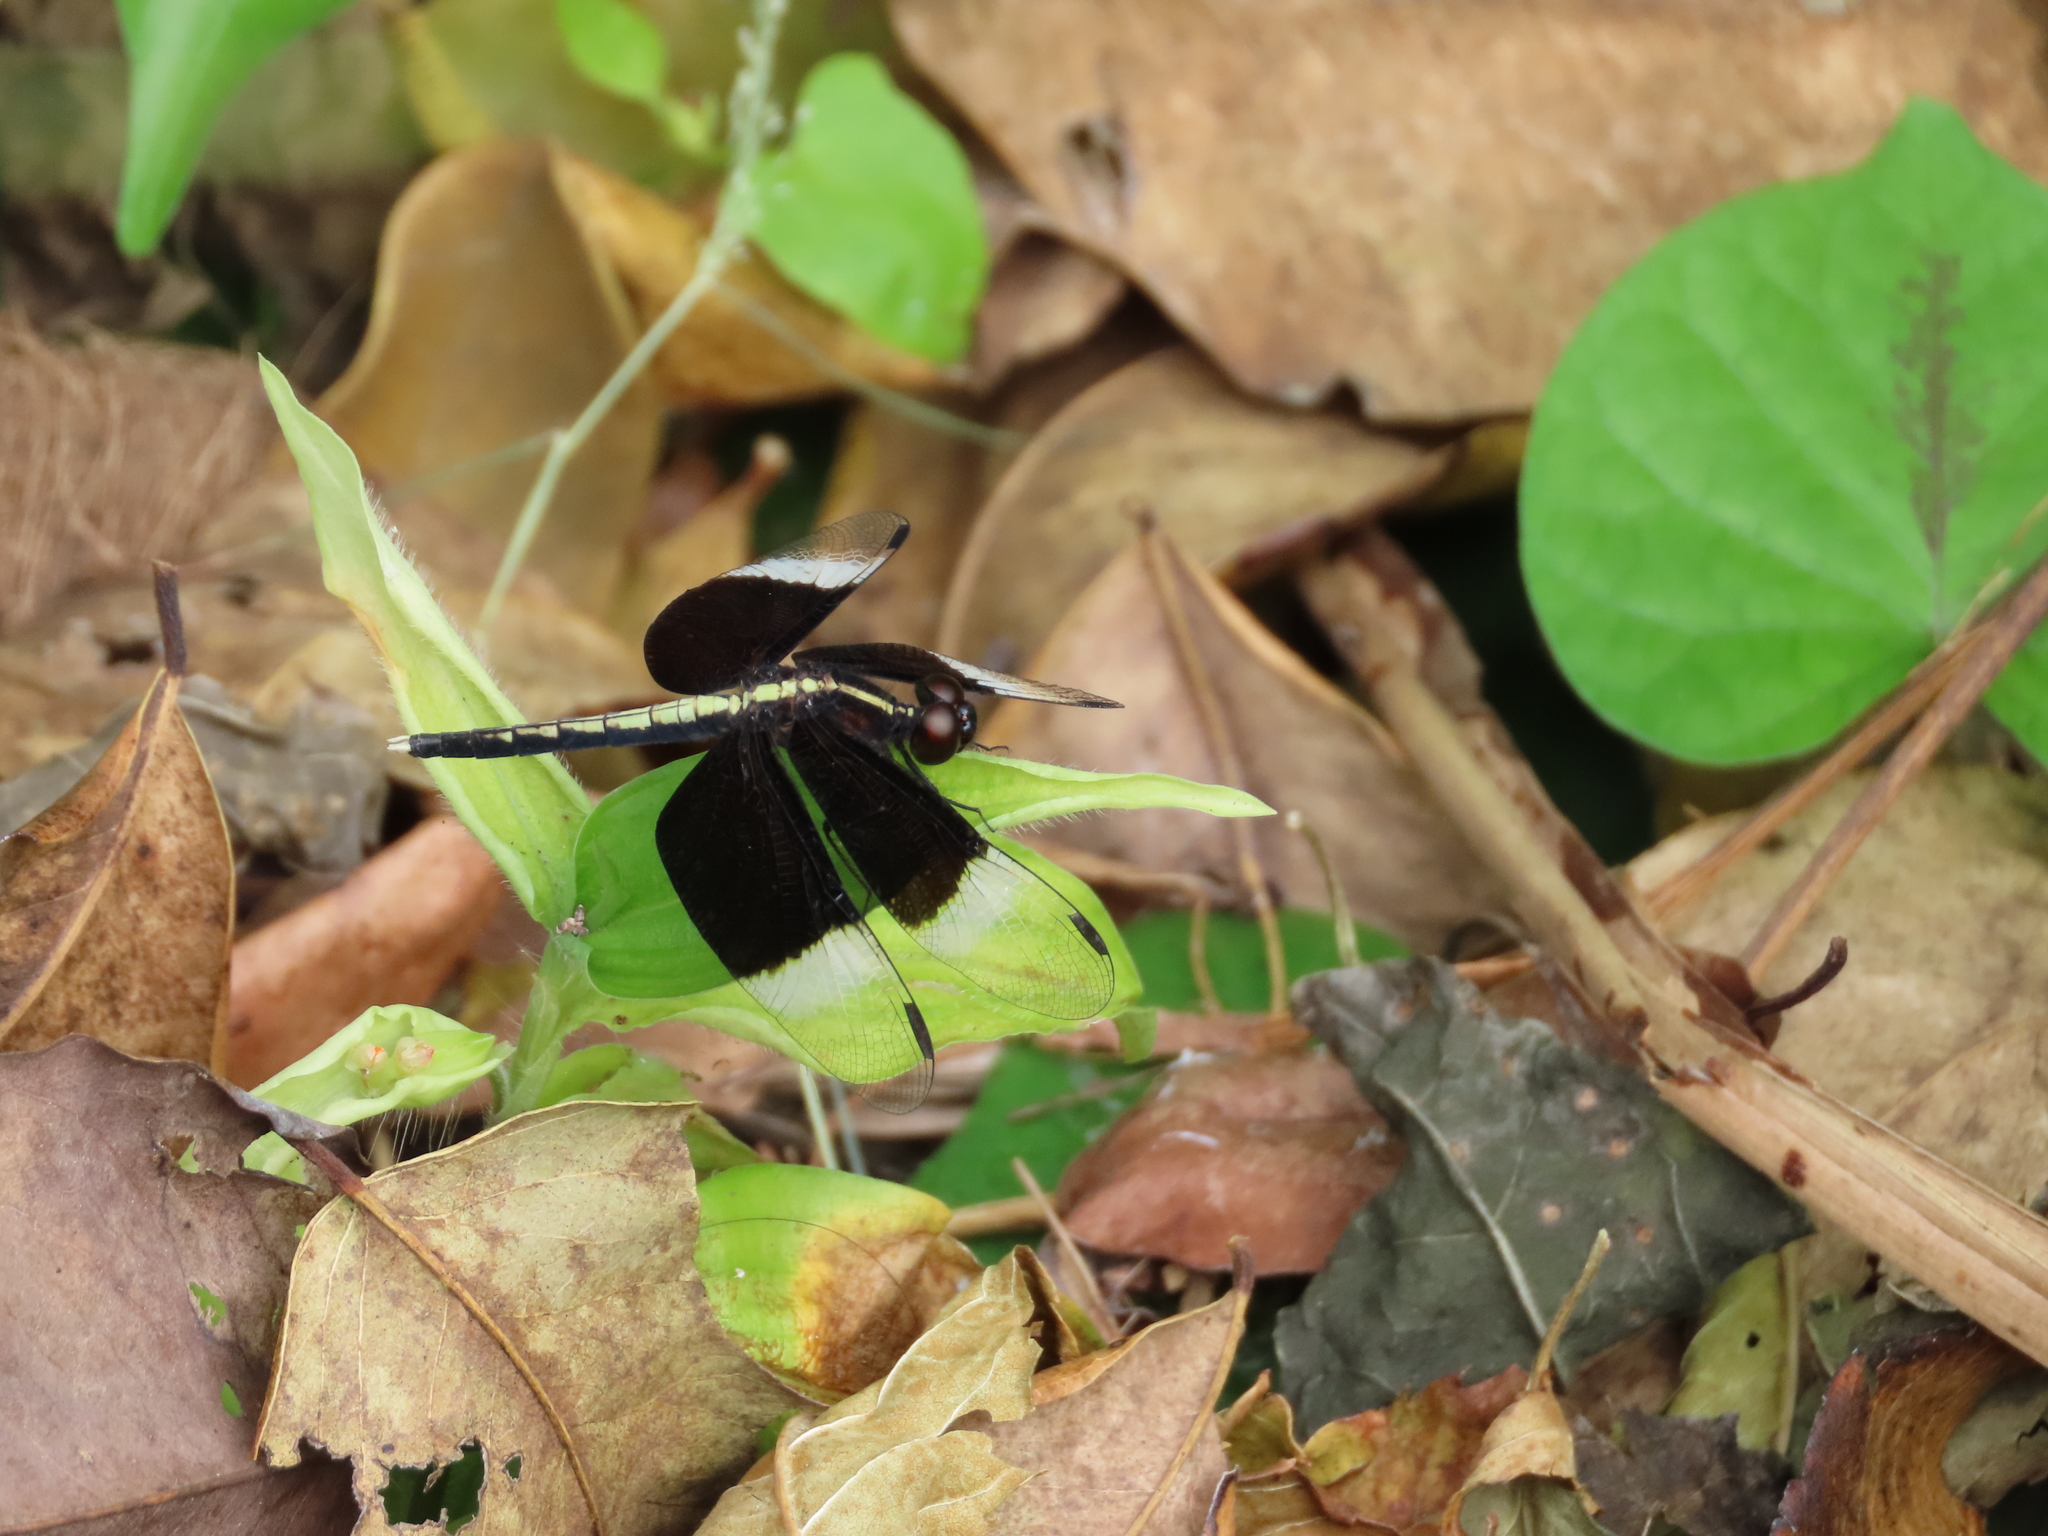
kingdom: Animalia
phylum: Arthropoda
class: Insecta
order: Odonata
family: Libellulidae
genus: Neurothemis
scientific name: Neurothemis tullia
